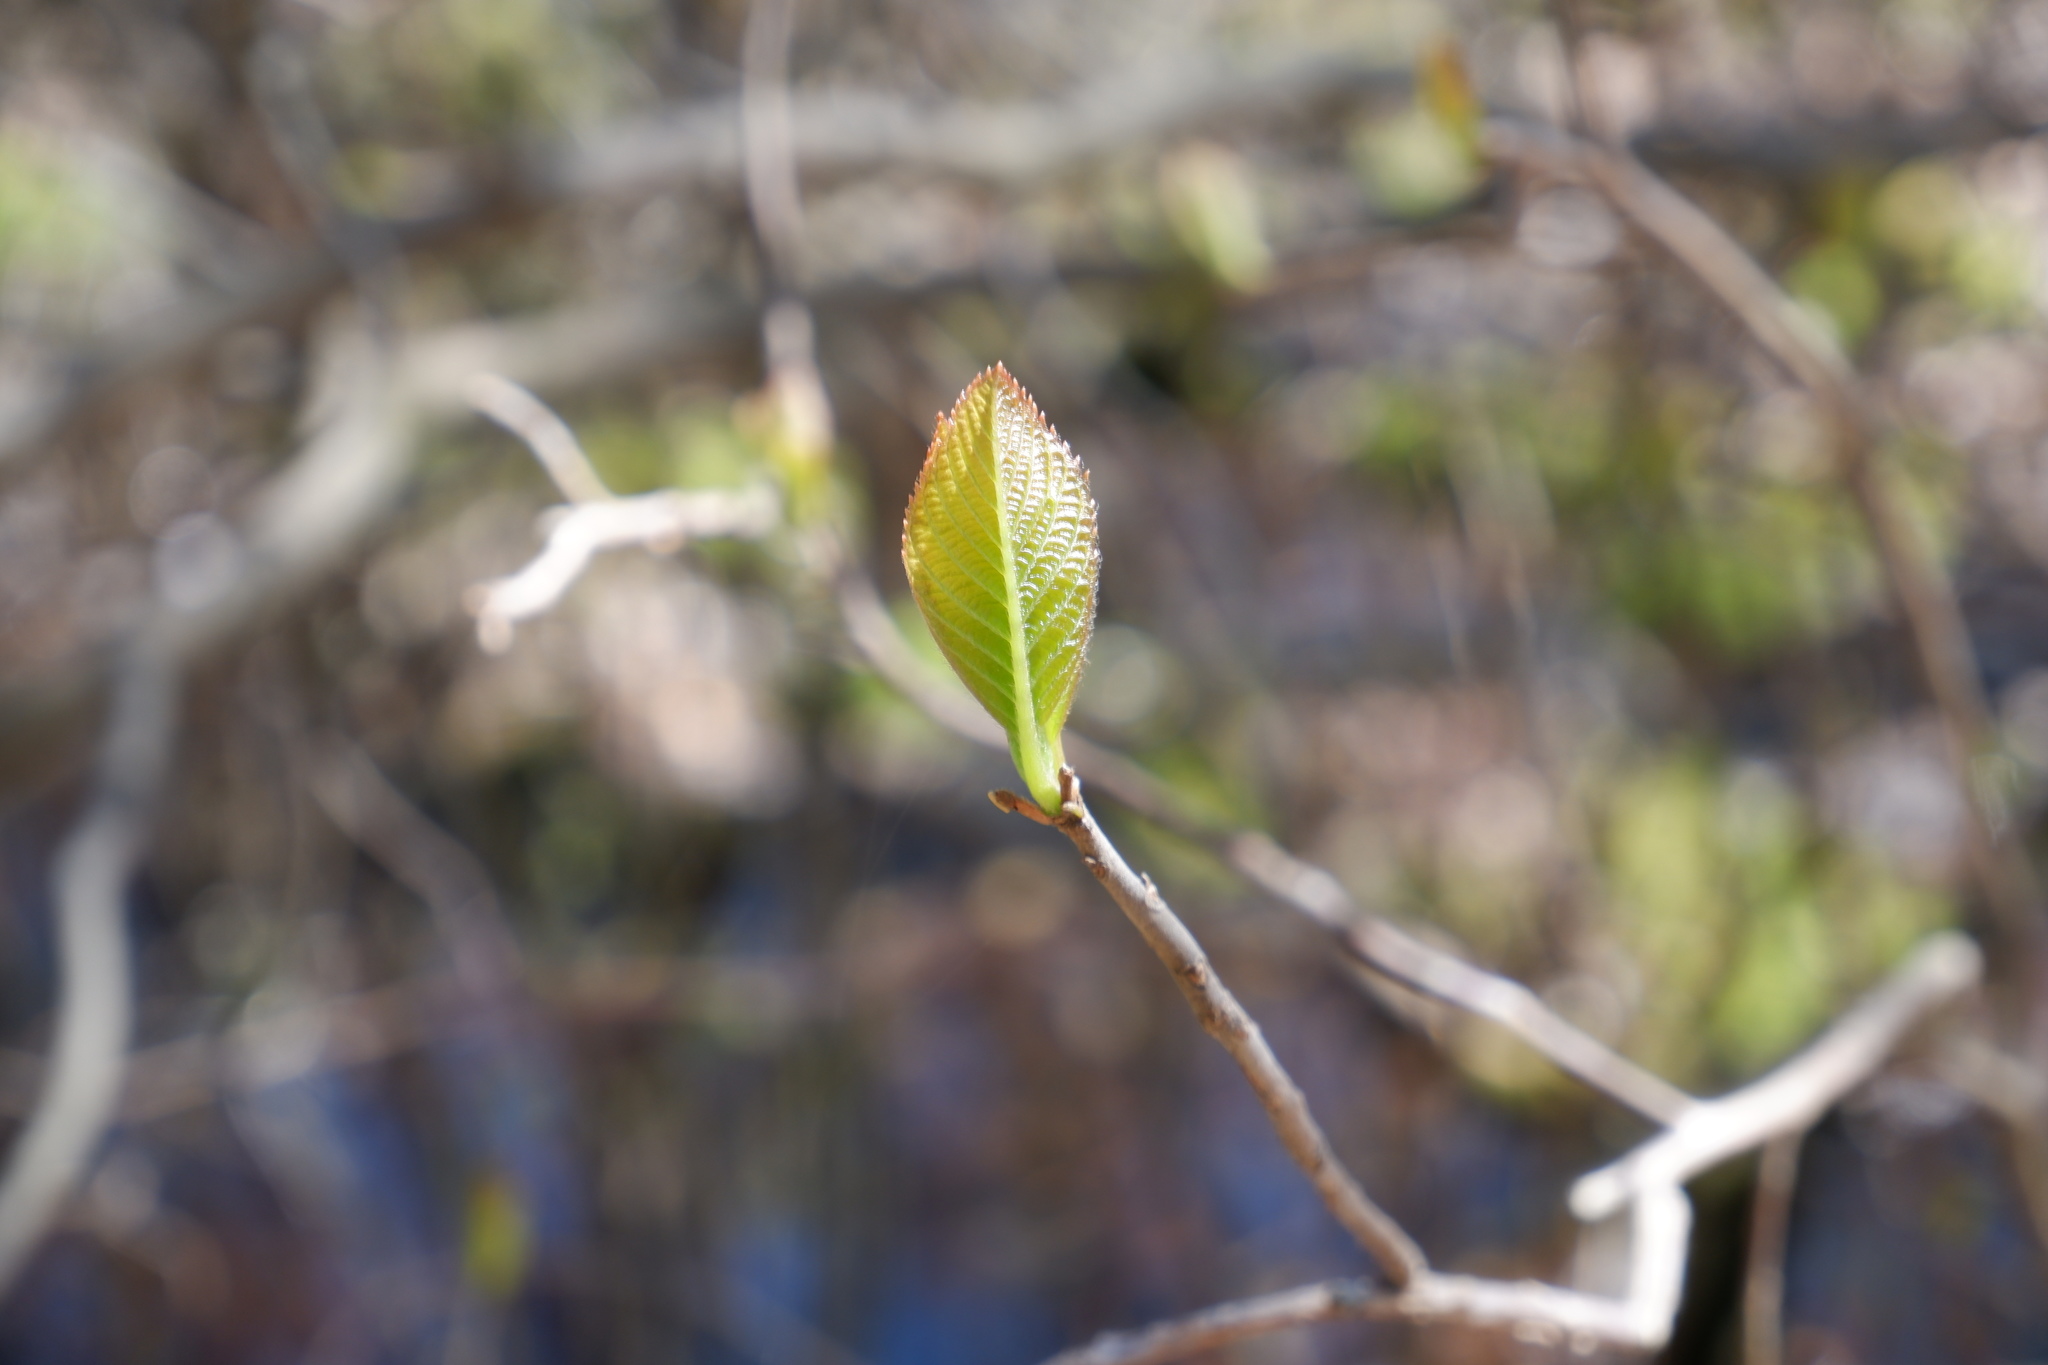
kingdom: Plantae
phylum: Tracheophyta
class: Magnoliopsida
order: Ericales
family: Clethraceae
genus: Clethra
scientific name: Clethra alnifolia
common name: Sweet pepperbush
